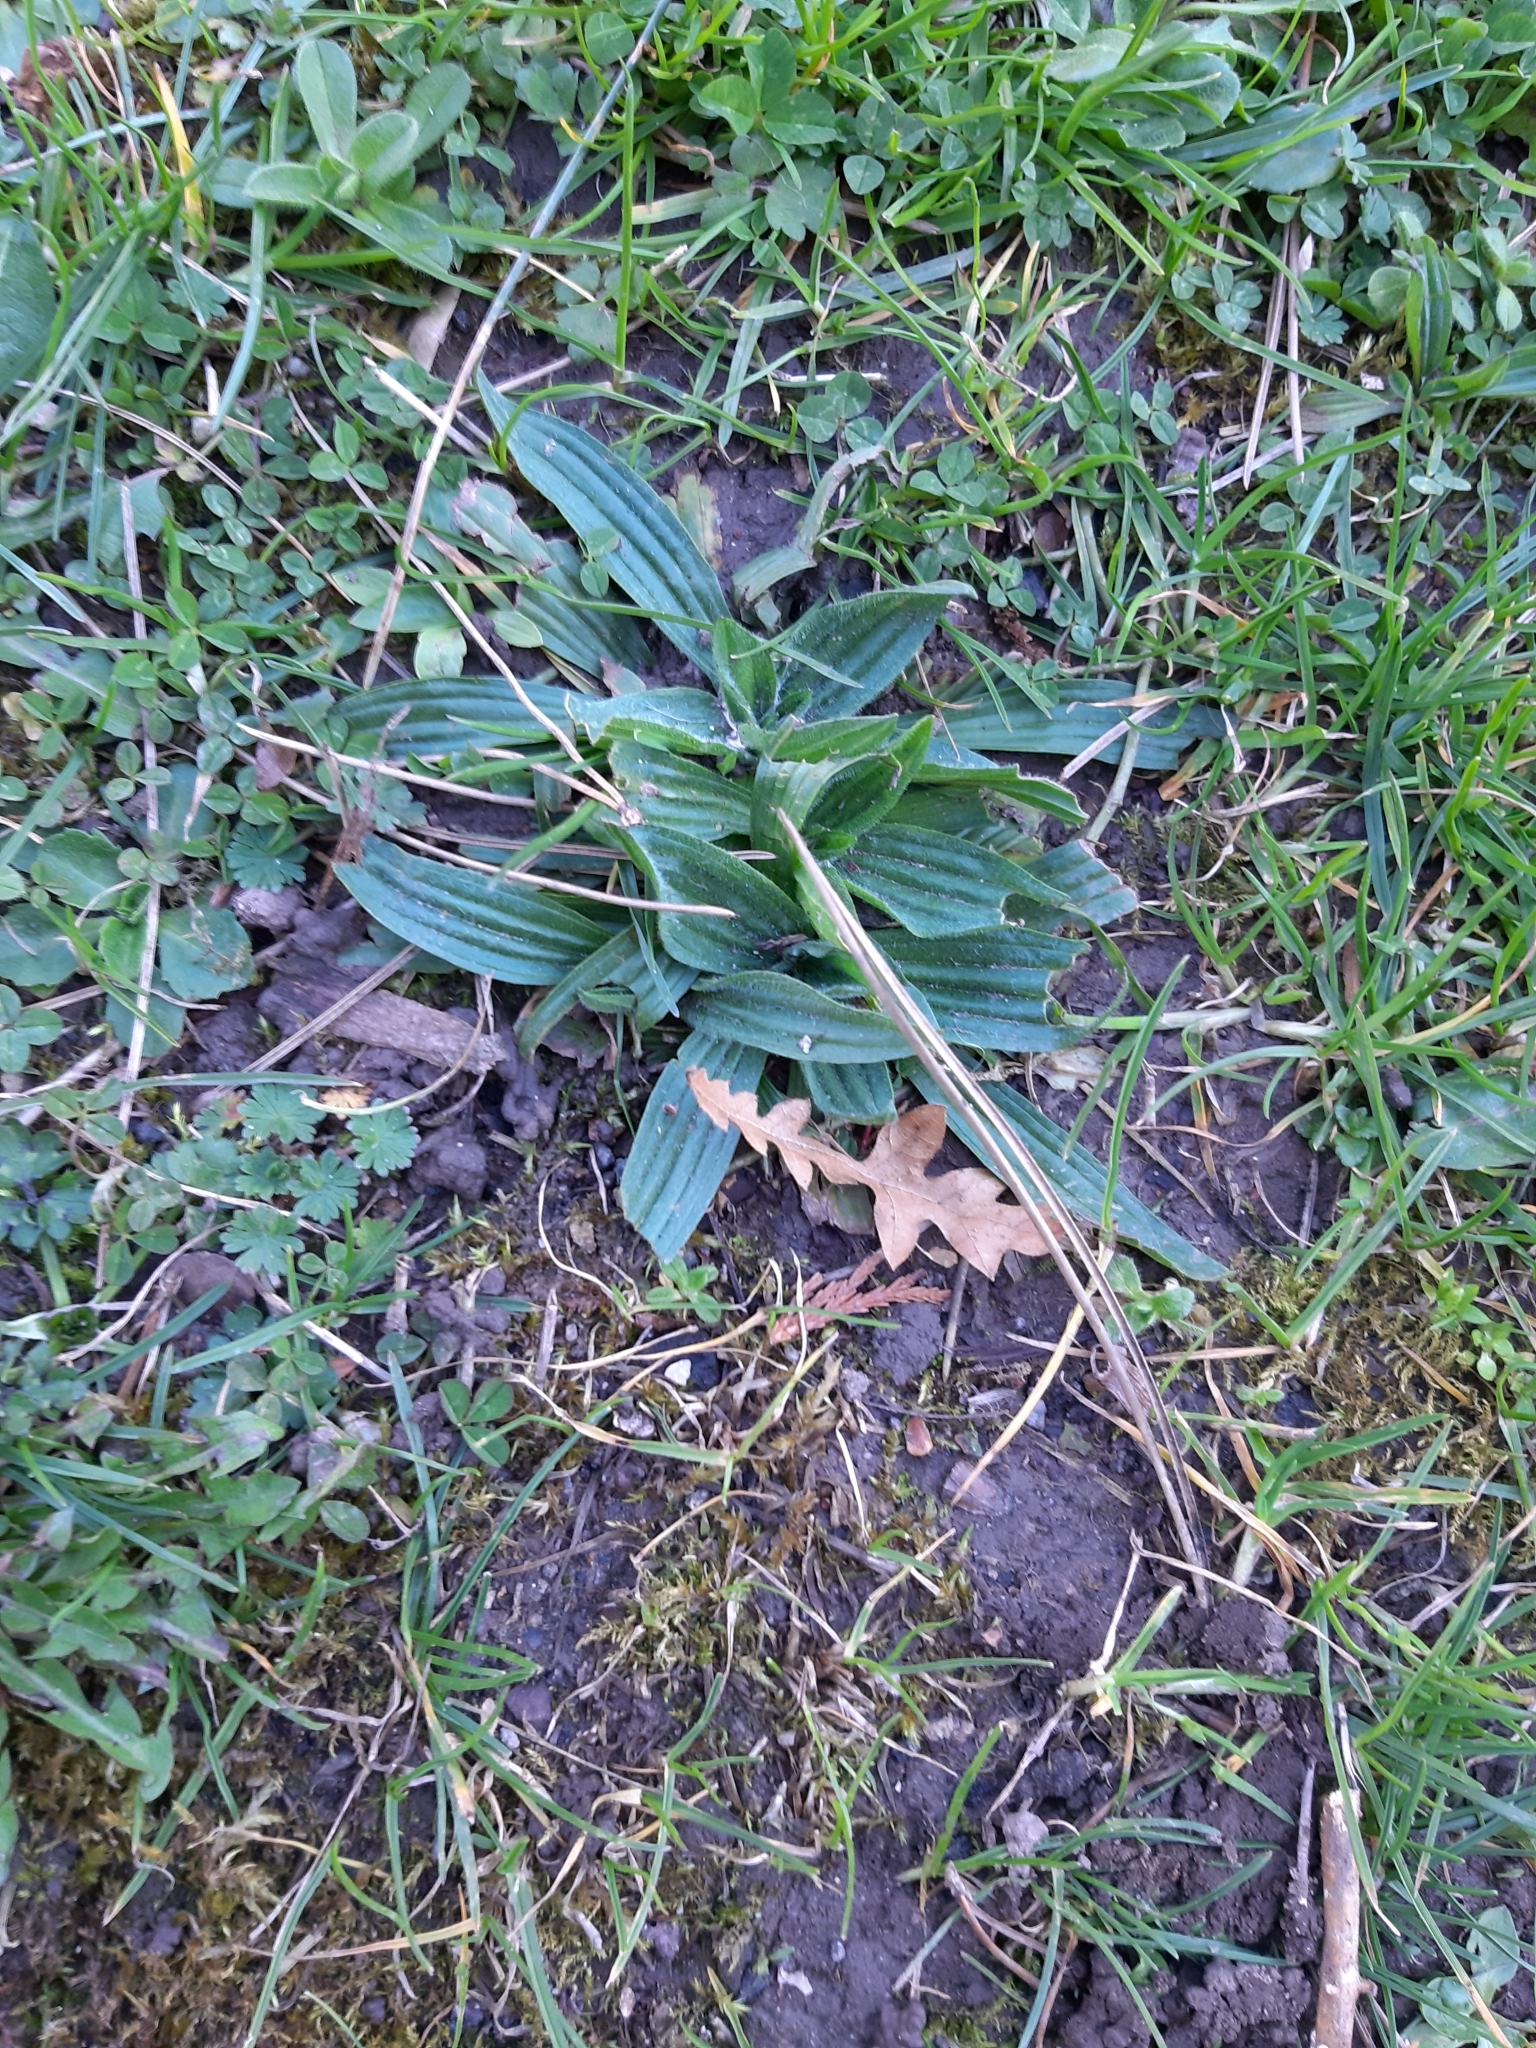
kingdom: Plantae
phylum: Tracheophyta
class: Magnoliopsida
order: Lamiales
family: Plantaginaceae
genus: Plantago
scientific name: Plantago lanceolata
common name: Ribwort plantain
